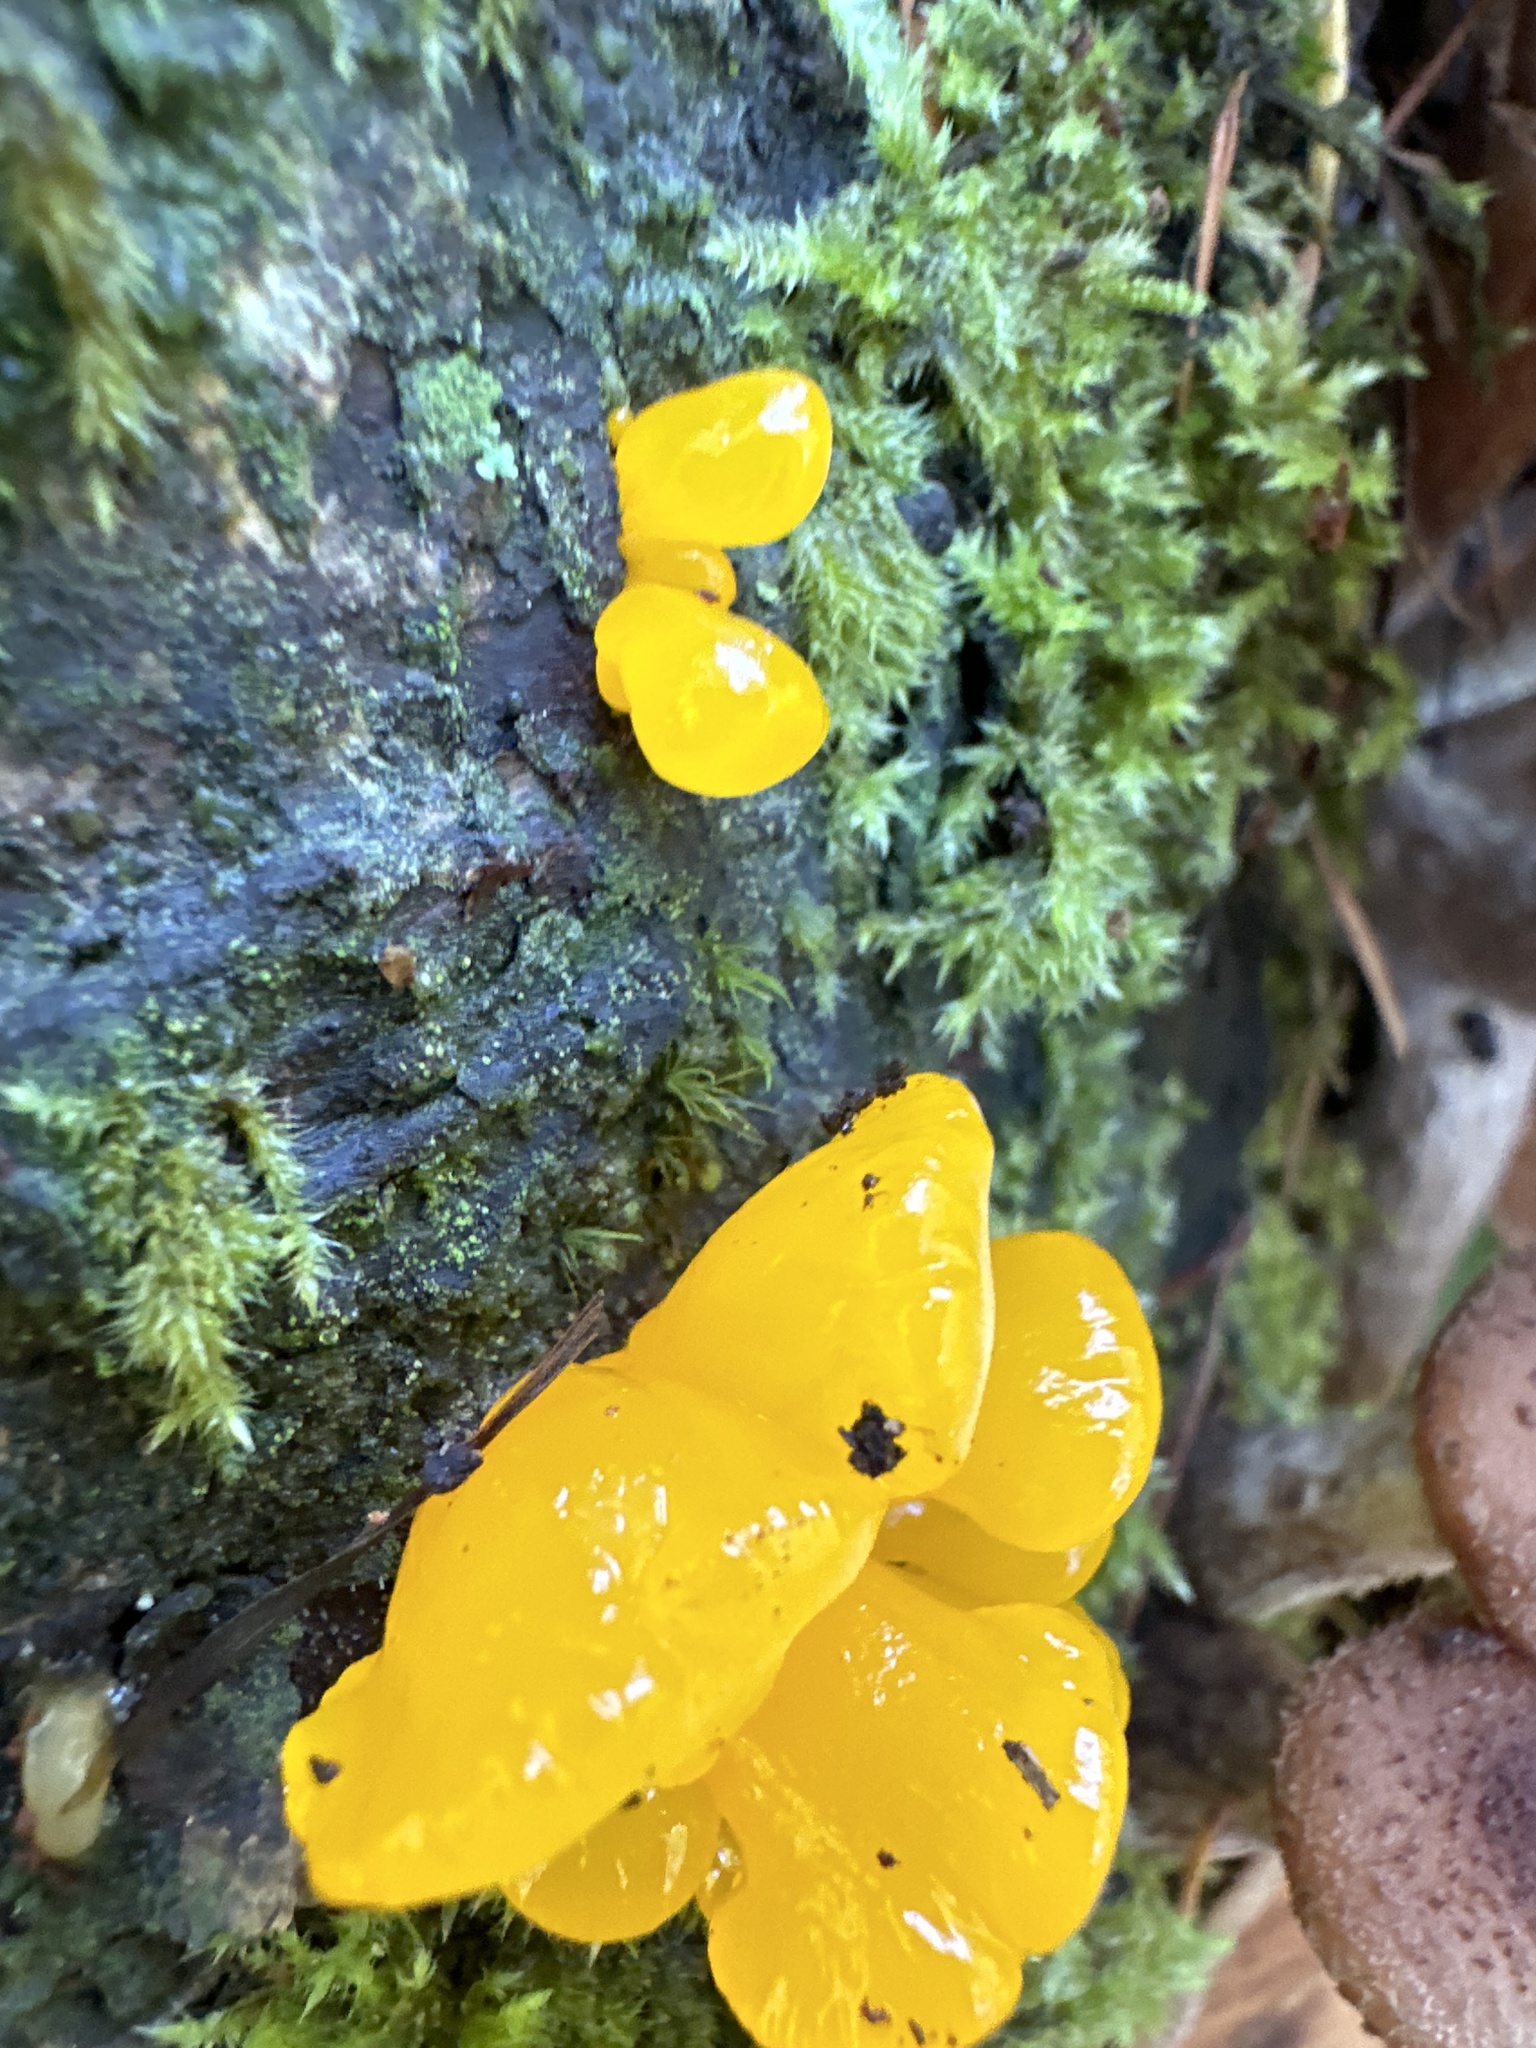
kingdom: Fungi
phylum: Basidiomycota
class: Dacrymycetes
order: Dacrymycetales
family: Dacrymycetaceae
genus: Dacrymyces
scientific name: Dacrymyces chrysospermus
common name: Orange jelly spot
